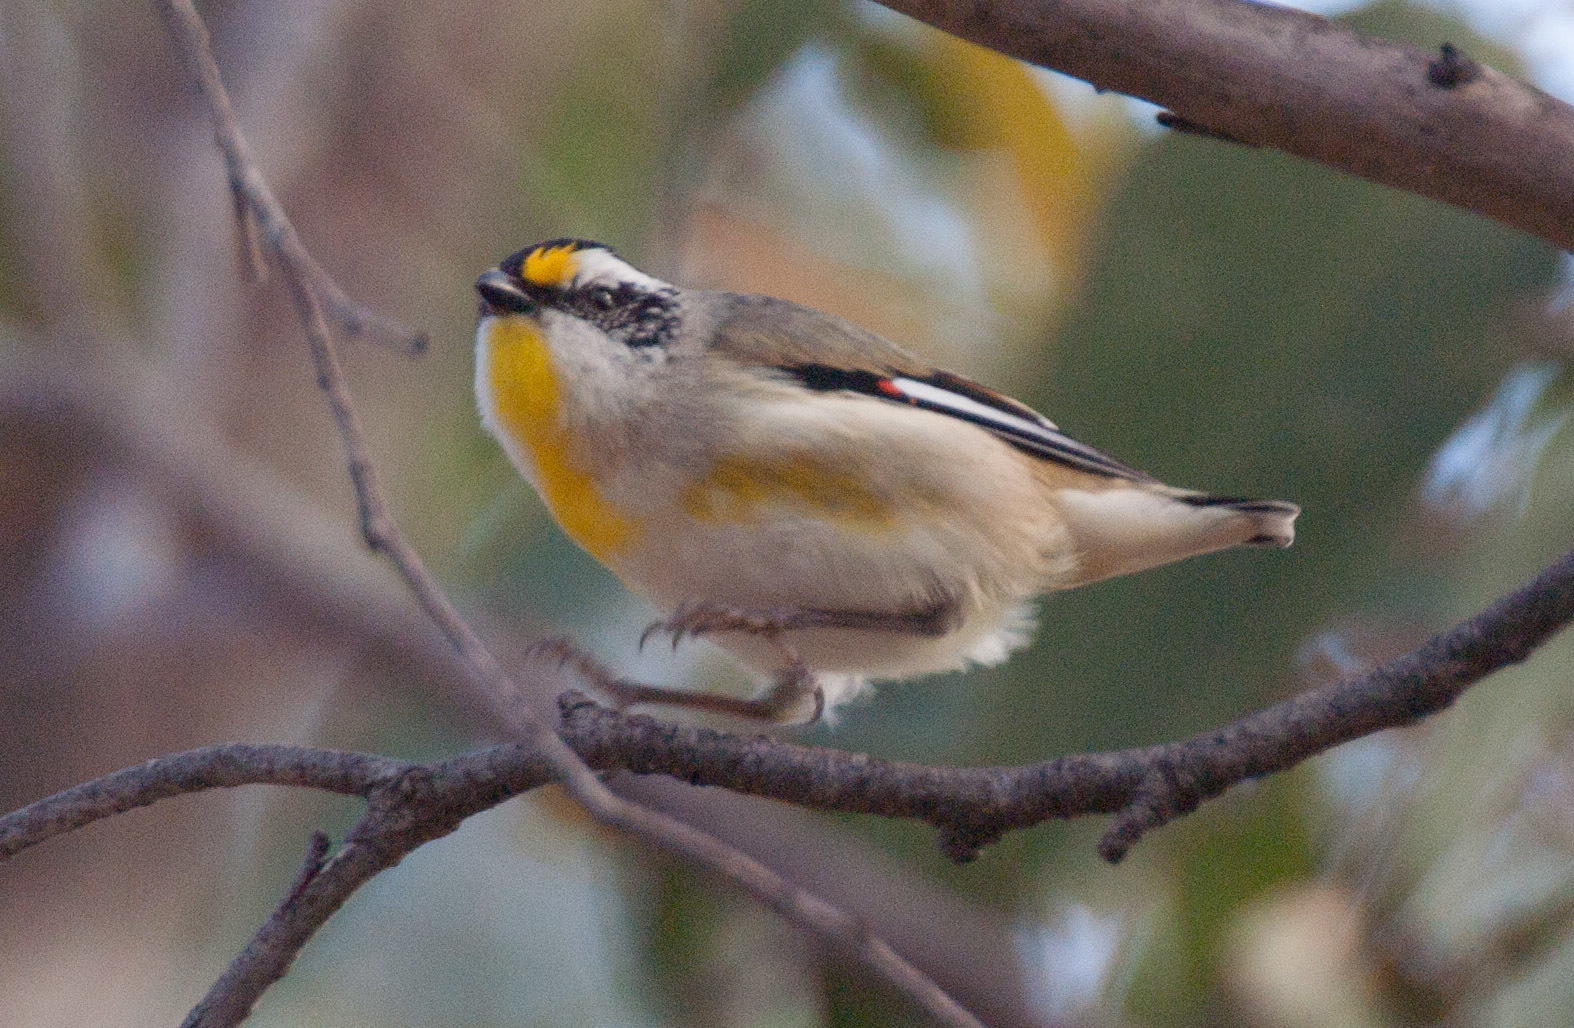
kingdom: Animalia
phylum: Chordata
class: Aves
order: Passeriformes
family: Pardalotidae
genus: Pardalotus
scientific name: Pardalotus striatus
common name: Striated pardalote
